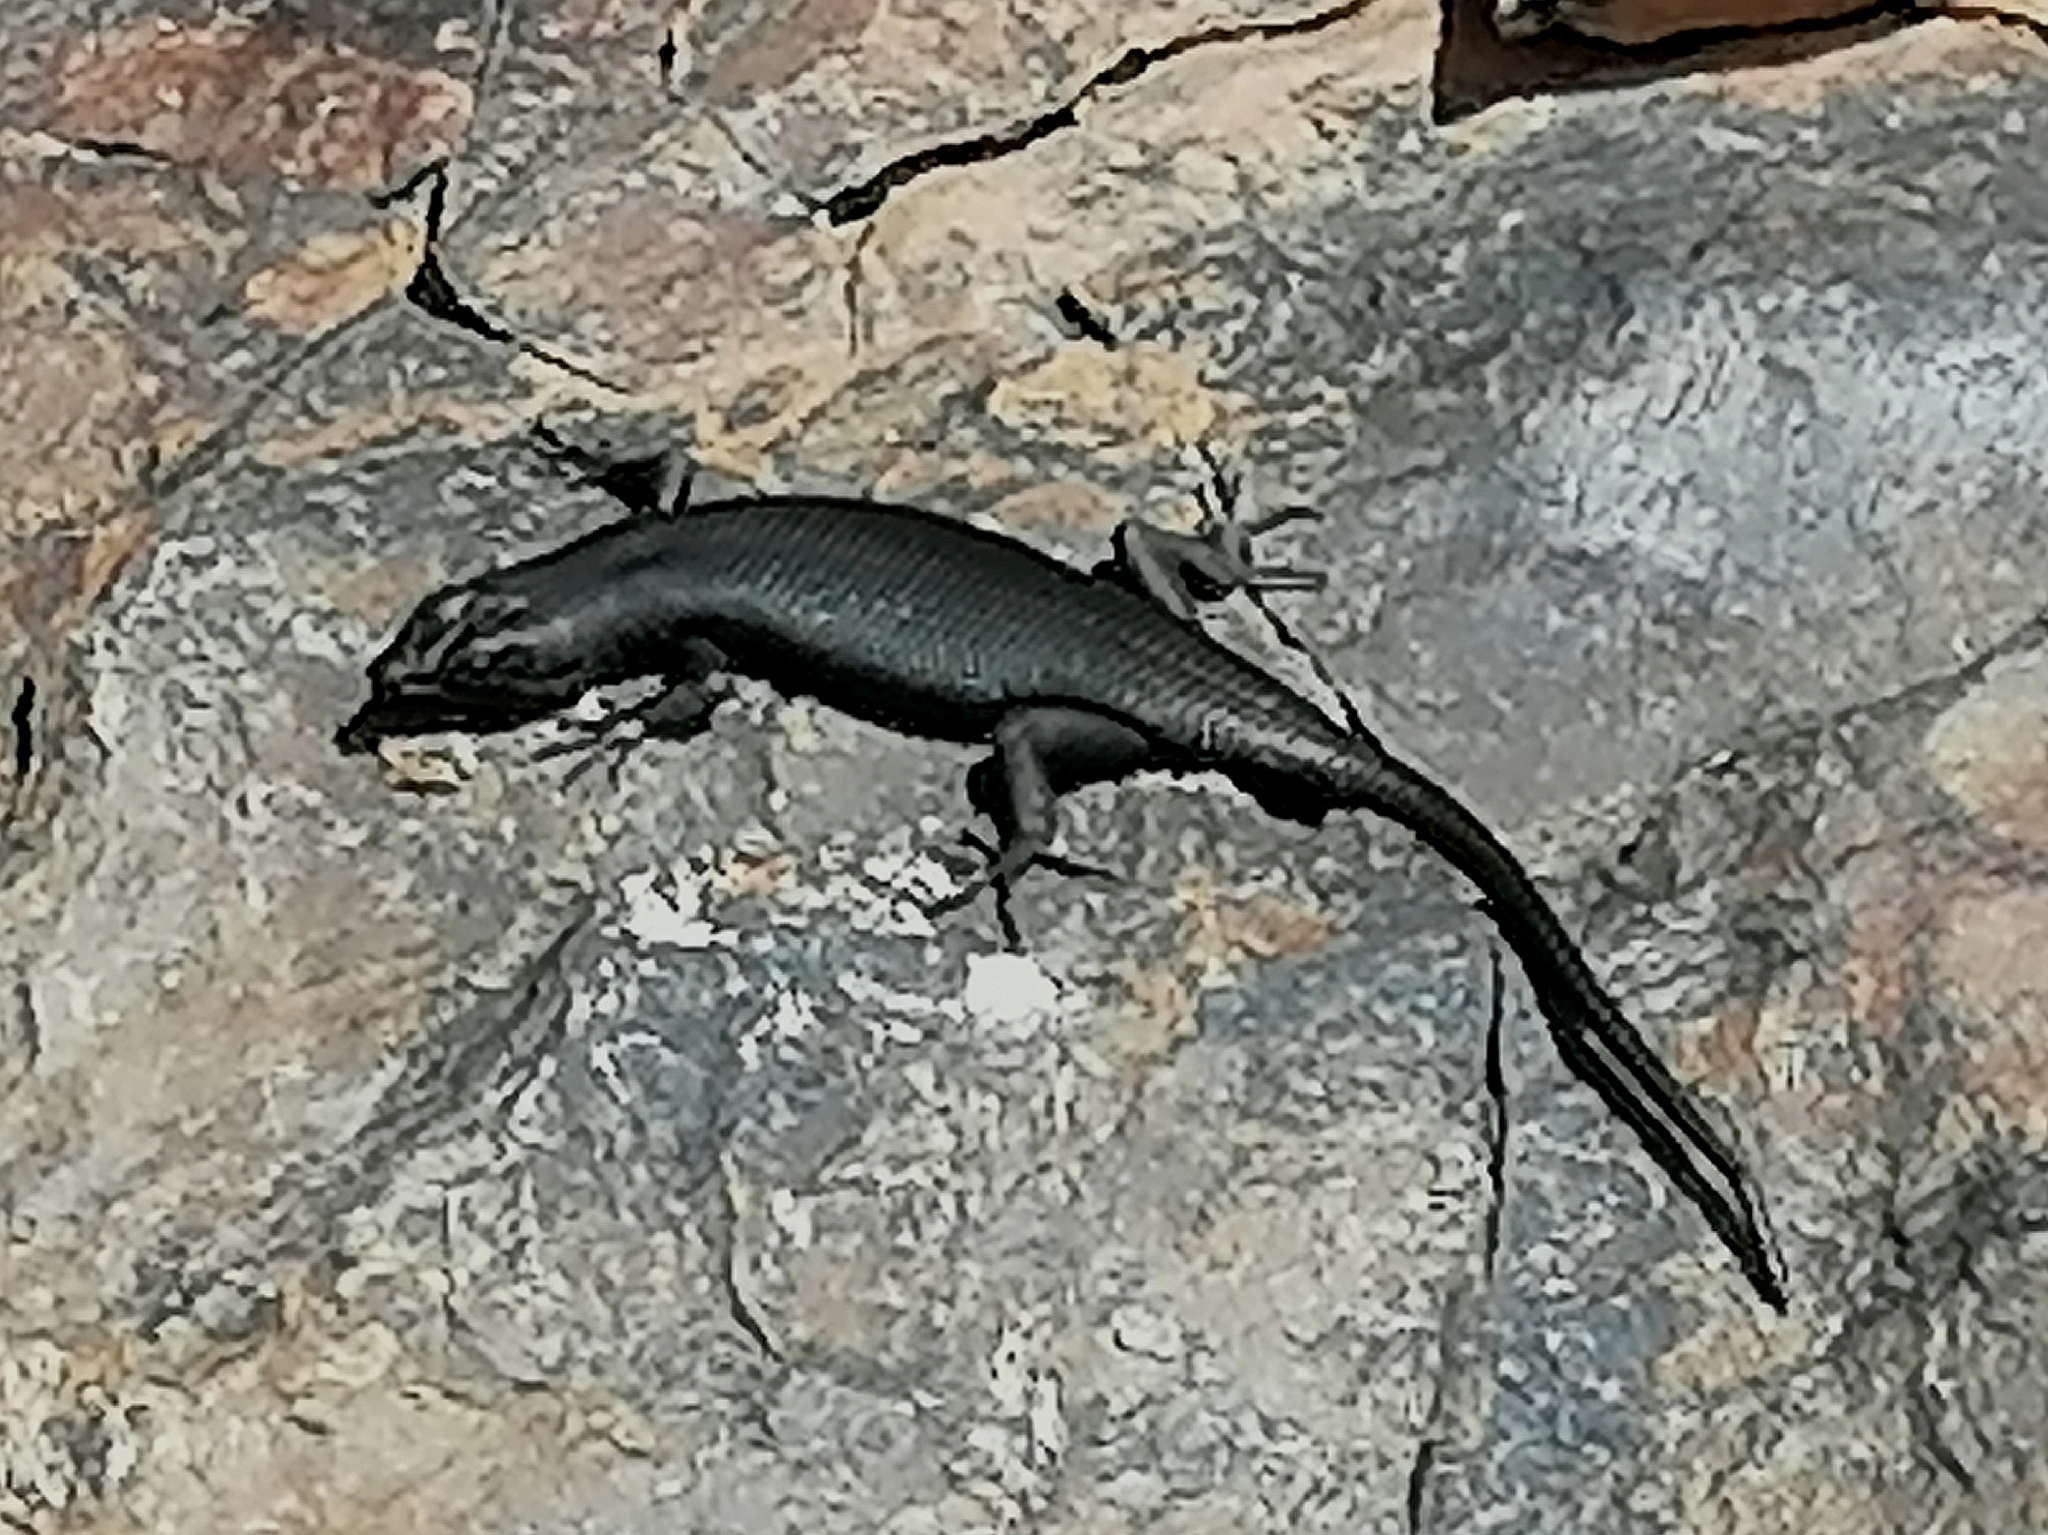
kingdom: Animalia
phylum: Chordata
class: Squamata
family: Scincidae
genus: Trachylepis
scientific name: Trachylepis sulcata
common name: Western rock skink
